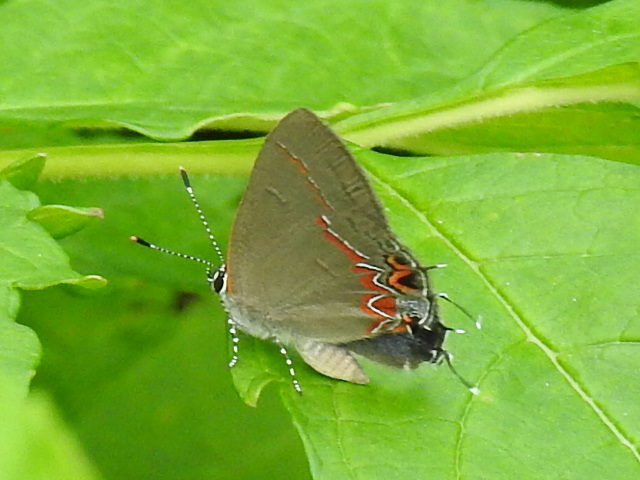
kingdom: Animalia
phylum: Arthropoda
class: Insecta
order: Lepidoptera
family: Lycaenidae
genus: Calycopis
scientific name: Calycopis isobeon
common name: Dusky-blue groundstreak
